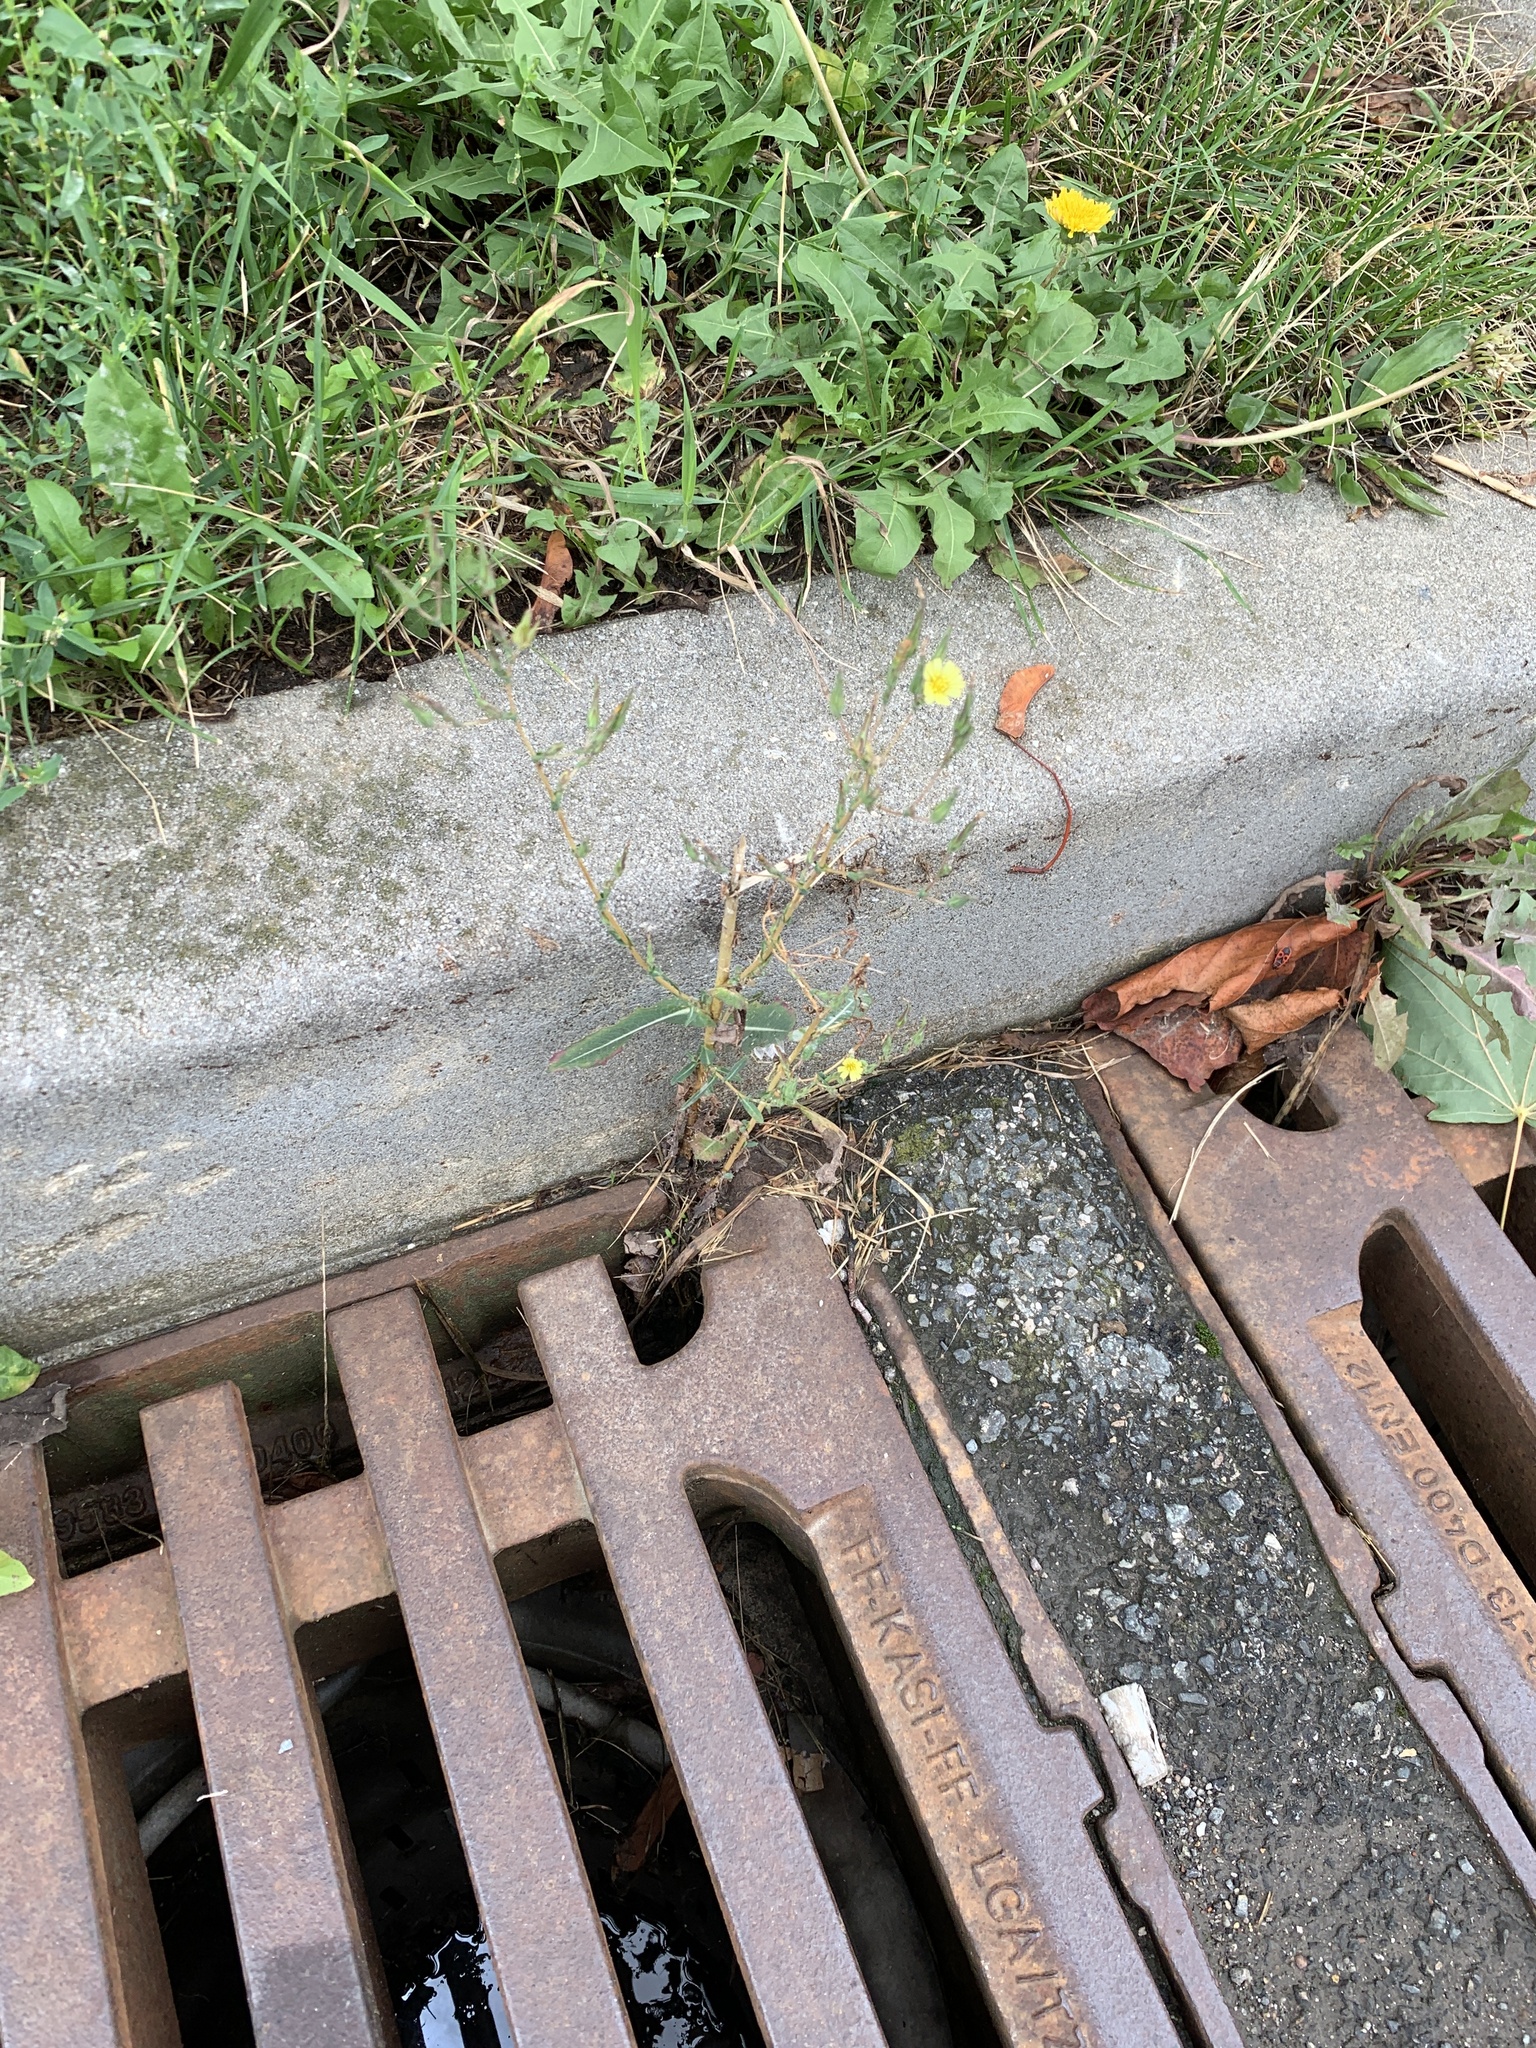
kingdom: Plantae
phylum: Tracheophyta
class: Magnoliopsida
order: Asterales
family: Asteraceae
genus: Lactuca
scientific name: Lactuca serriola
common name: Prickly lettuce
